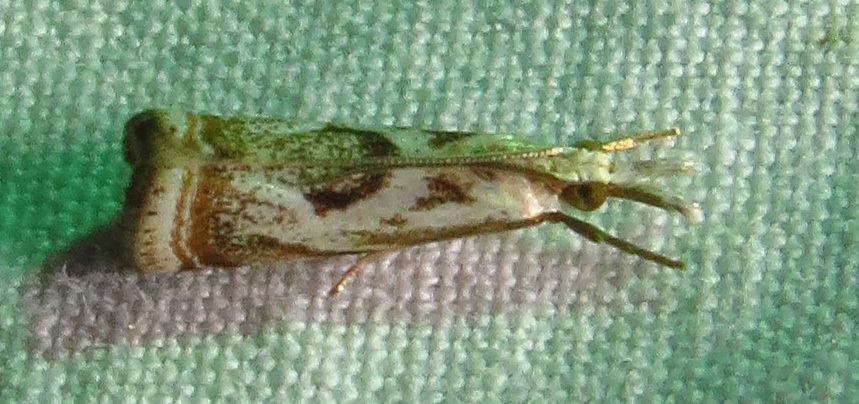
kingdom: Animalia
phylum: Arthropoda
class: Insecta
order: Lepidoptera
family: Crambidae
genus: Microcrambus
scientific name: Microcrambus elegans
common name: Elegant grass-veneer
